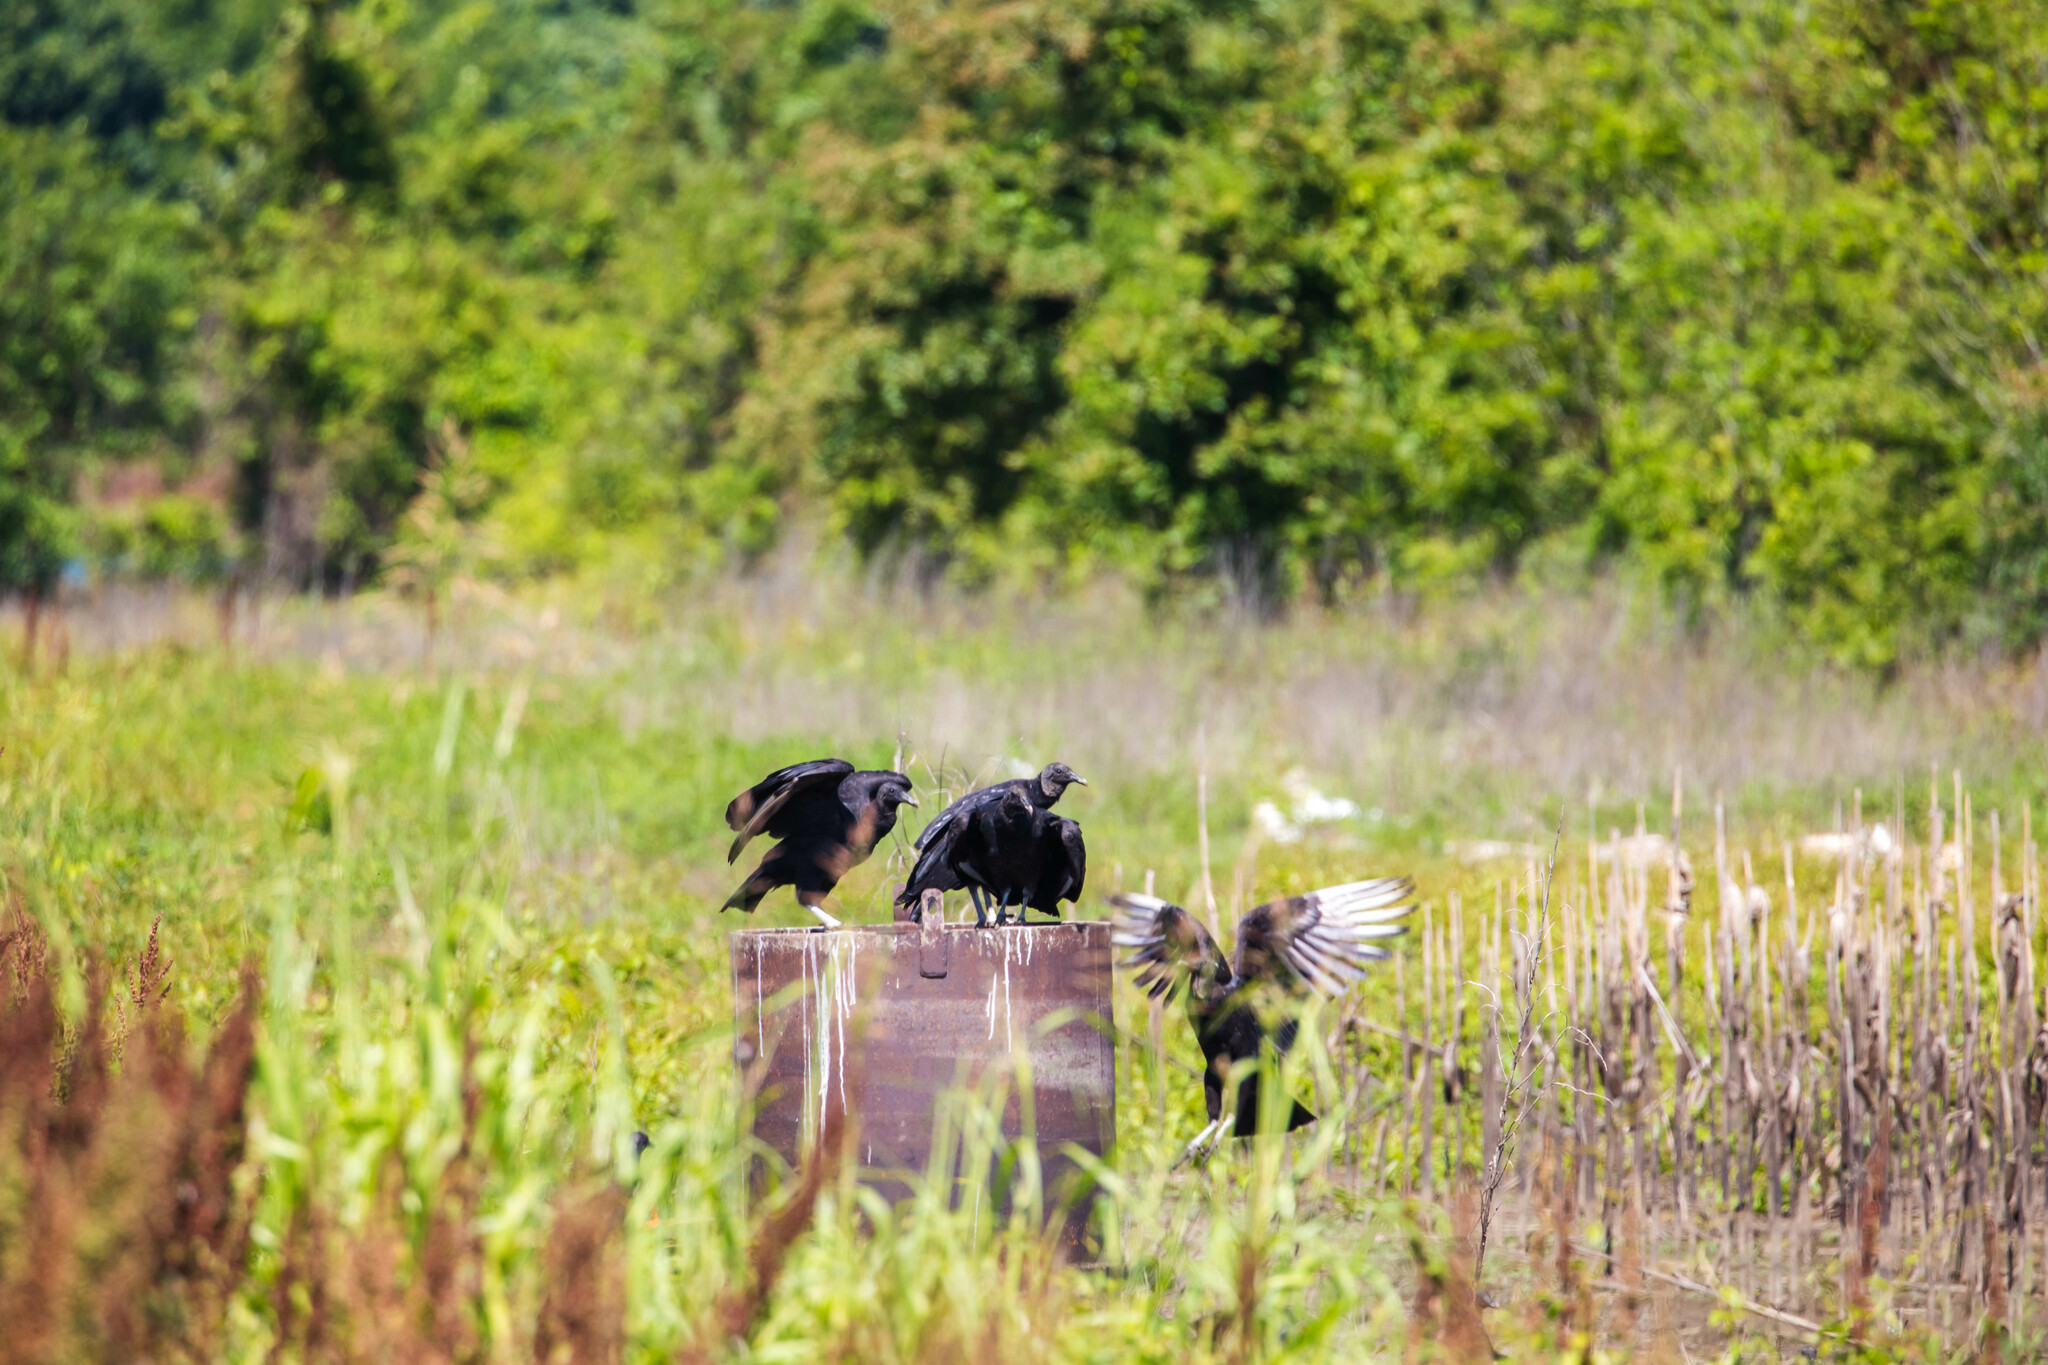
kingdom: Animalia
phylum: Chordata
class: Aves
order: Accipitriformes
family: Cathartidae
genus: Coragyps
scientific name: Coragyps atratus
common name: Black vulture
